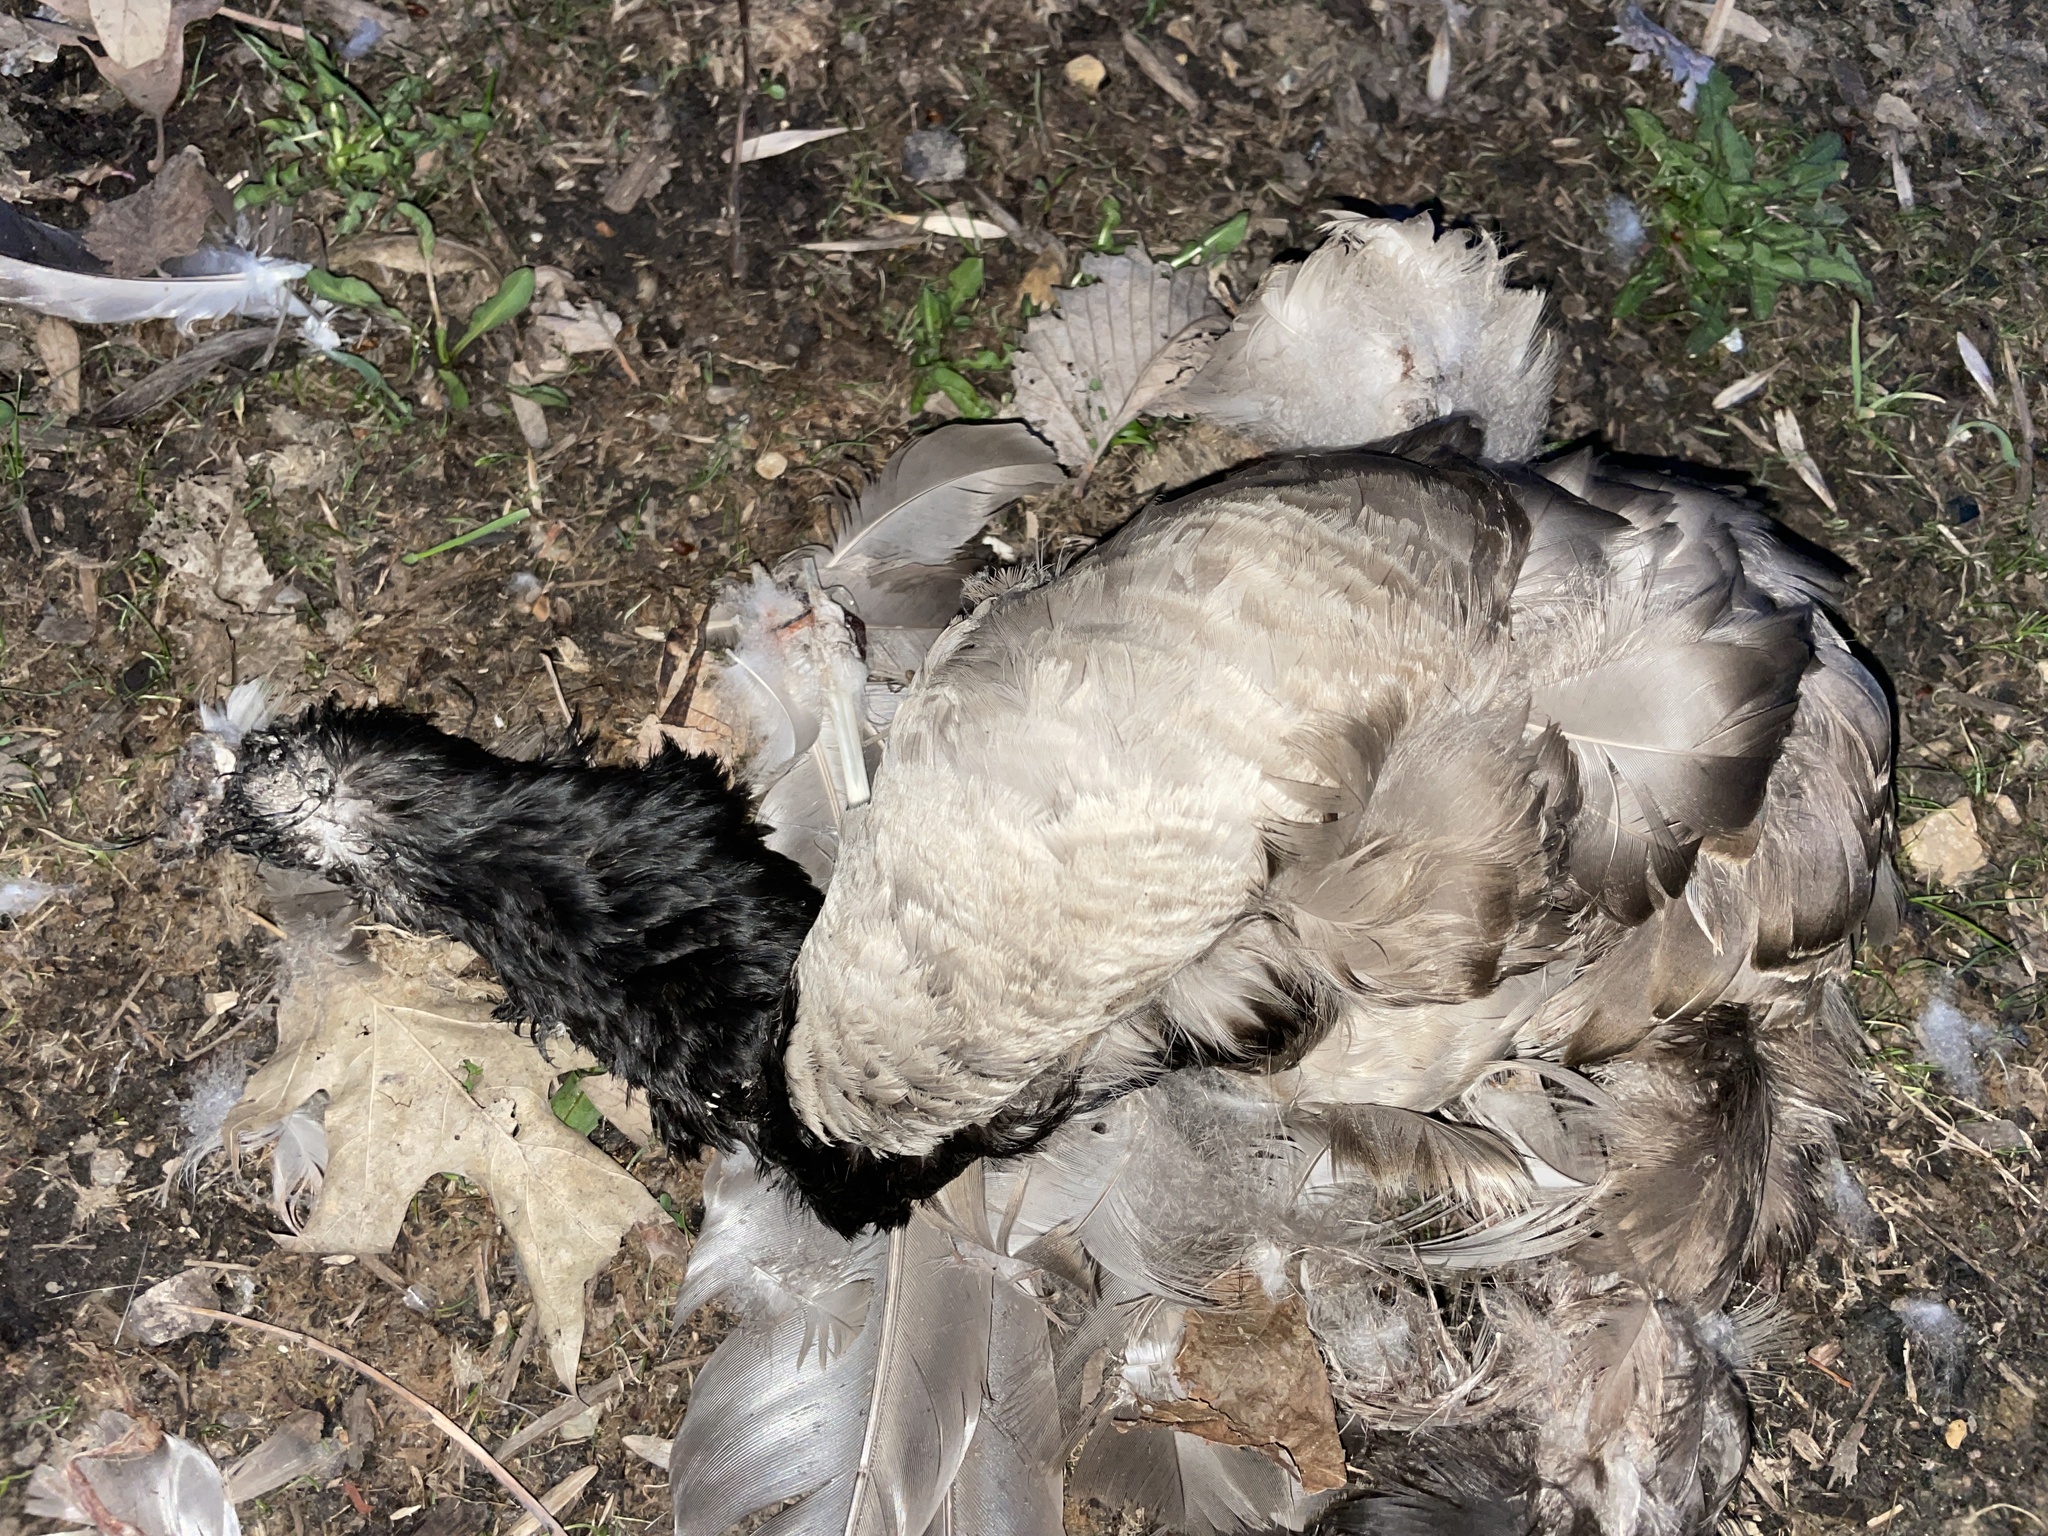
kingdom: Animalia
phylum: Chordata
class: Aves
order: Anseriformes
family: Anatidae
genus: Branta
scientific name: Branta canadensis
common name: Canada goose
